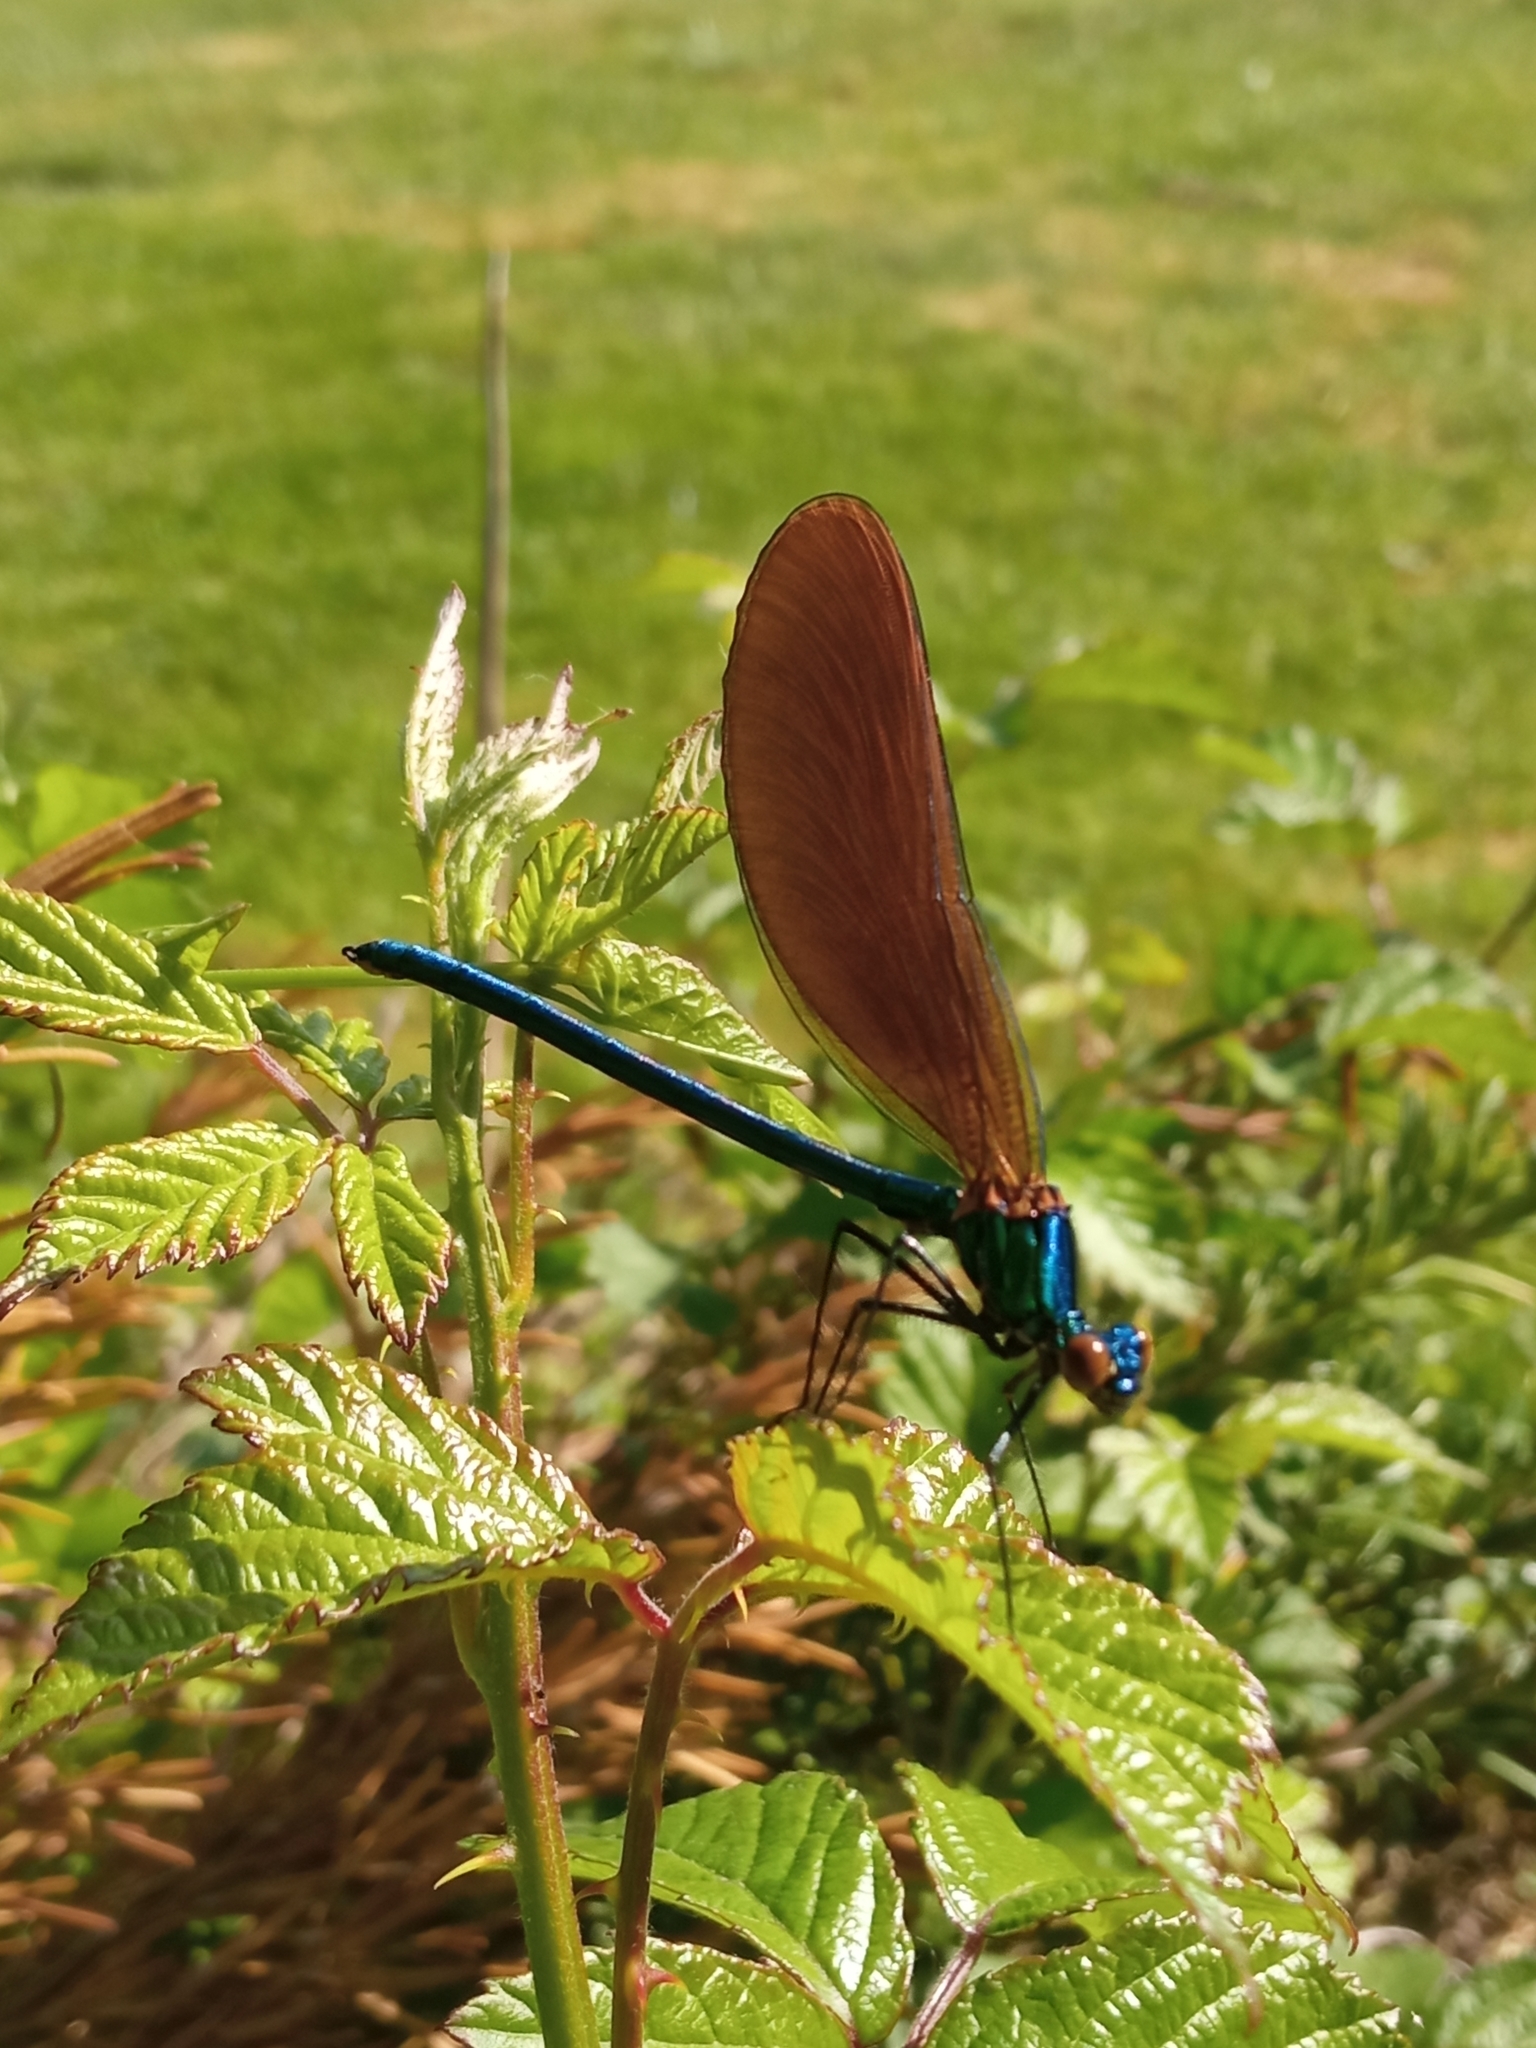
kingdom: Animalia
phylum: Arthropoda
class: Insecta
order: Odonata
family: Calopterygidae
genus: Calopteryx
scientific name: Calopteryx virgo
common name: Beautiful demoiselle
